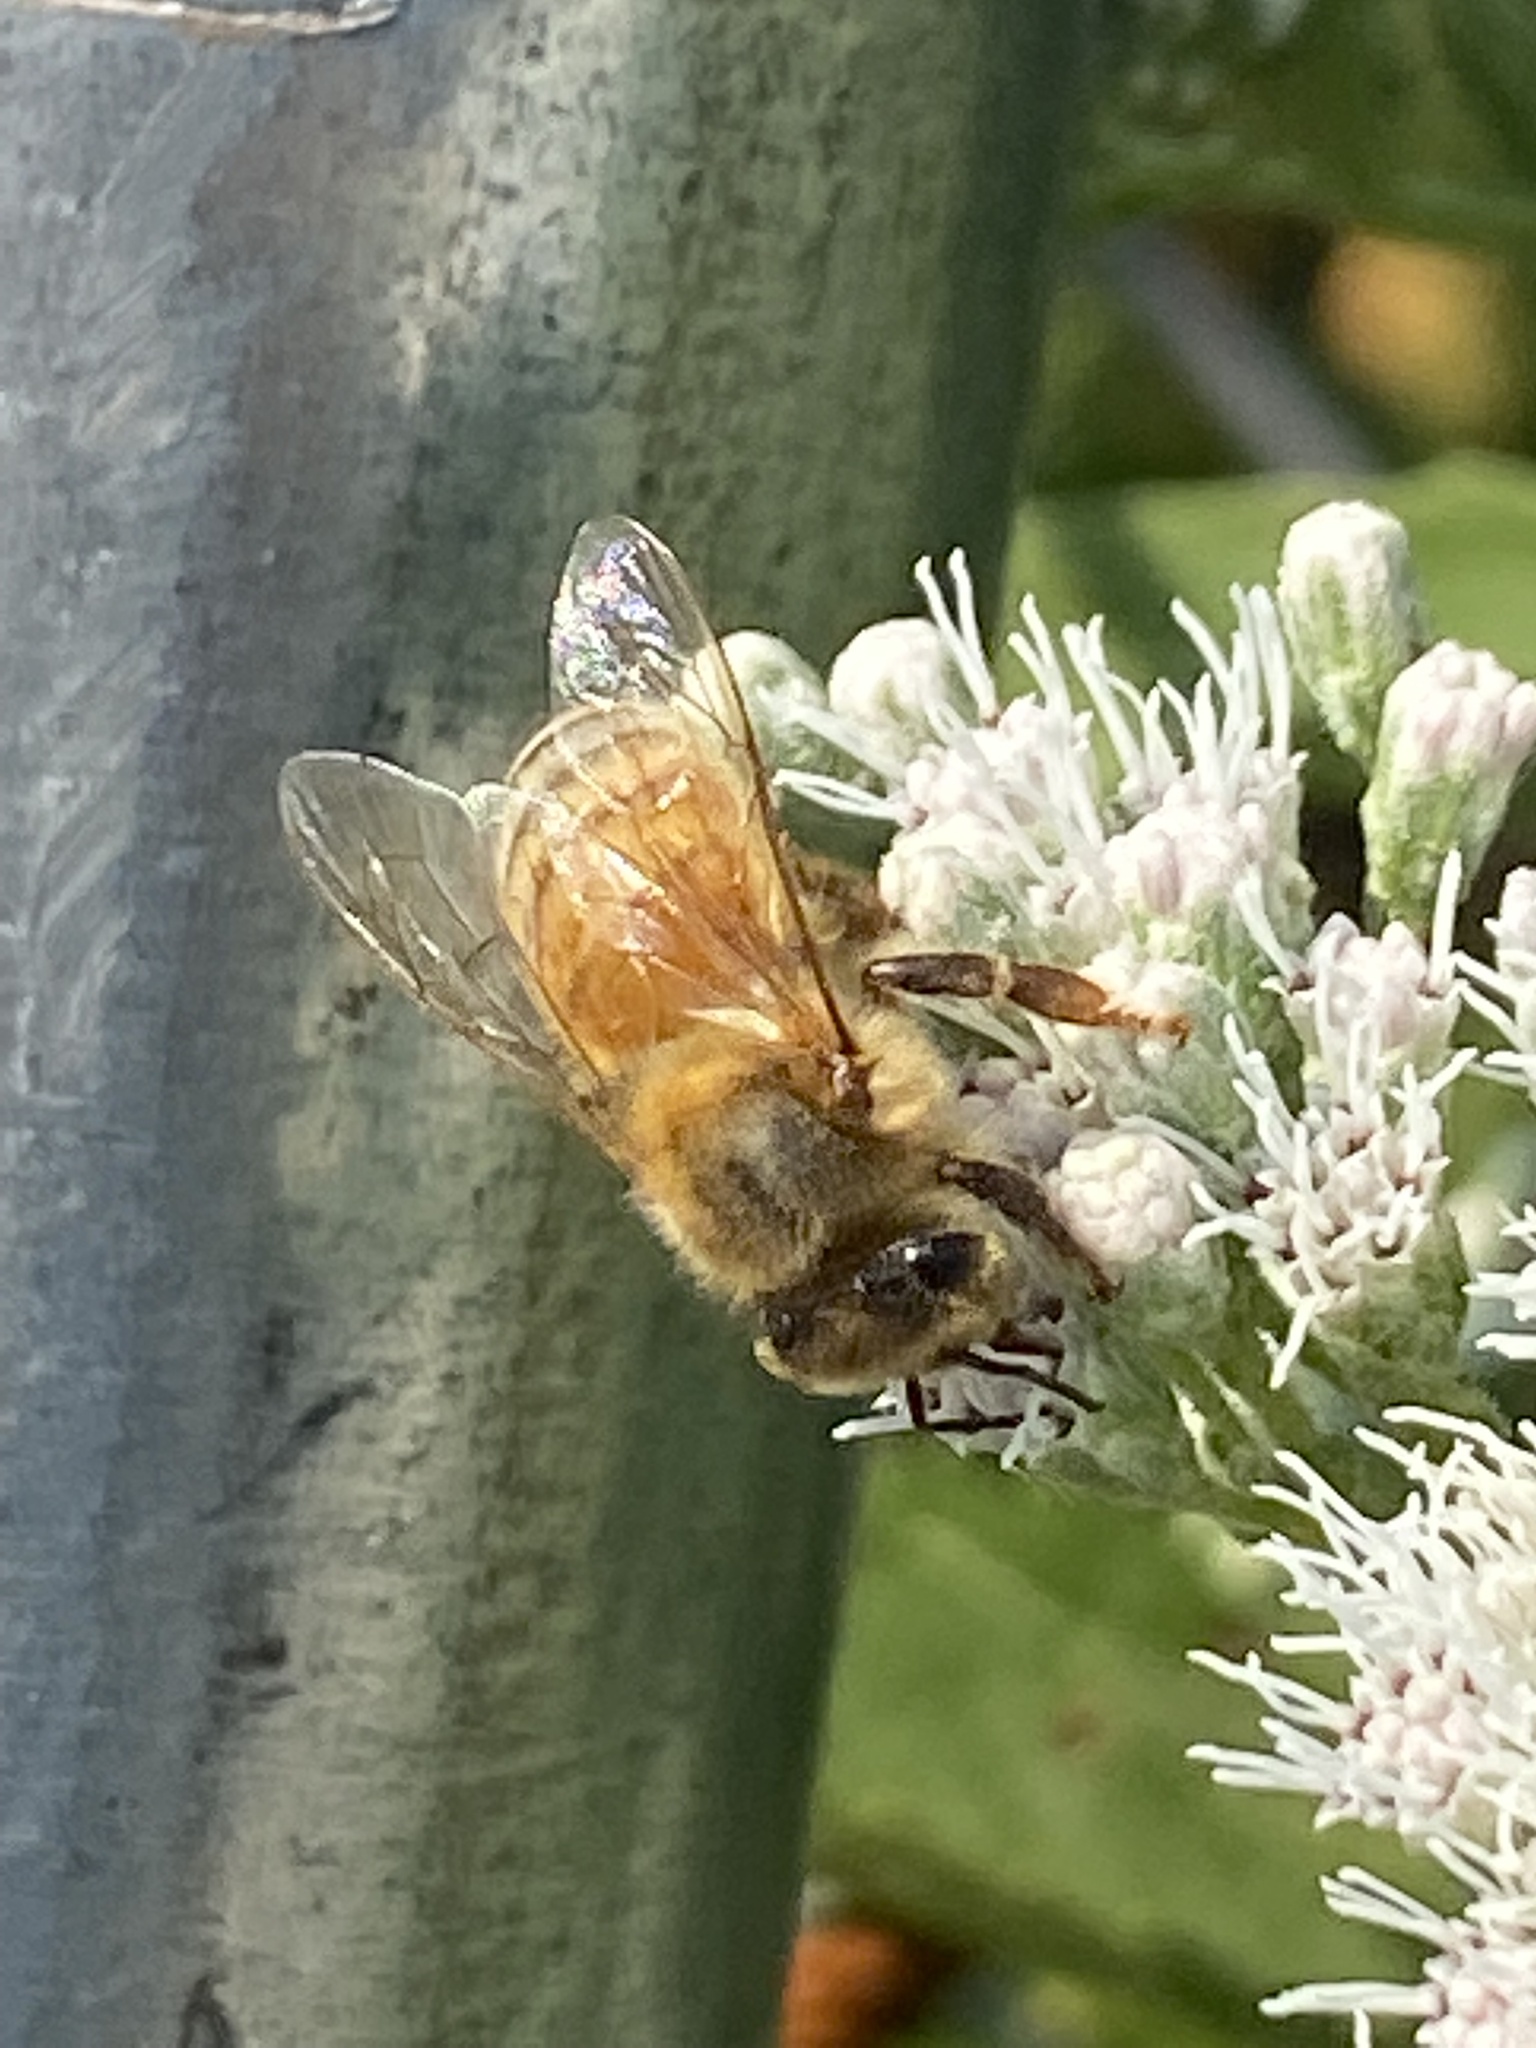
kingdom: Animalia
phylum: Arthropoda
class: Insecta
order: Hymenoptera
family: Apidae
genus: Apis
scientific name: Apis mellifera
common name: Honey bee
